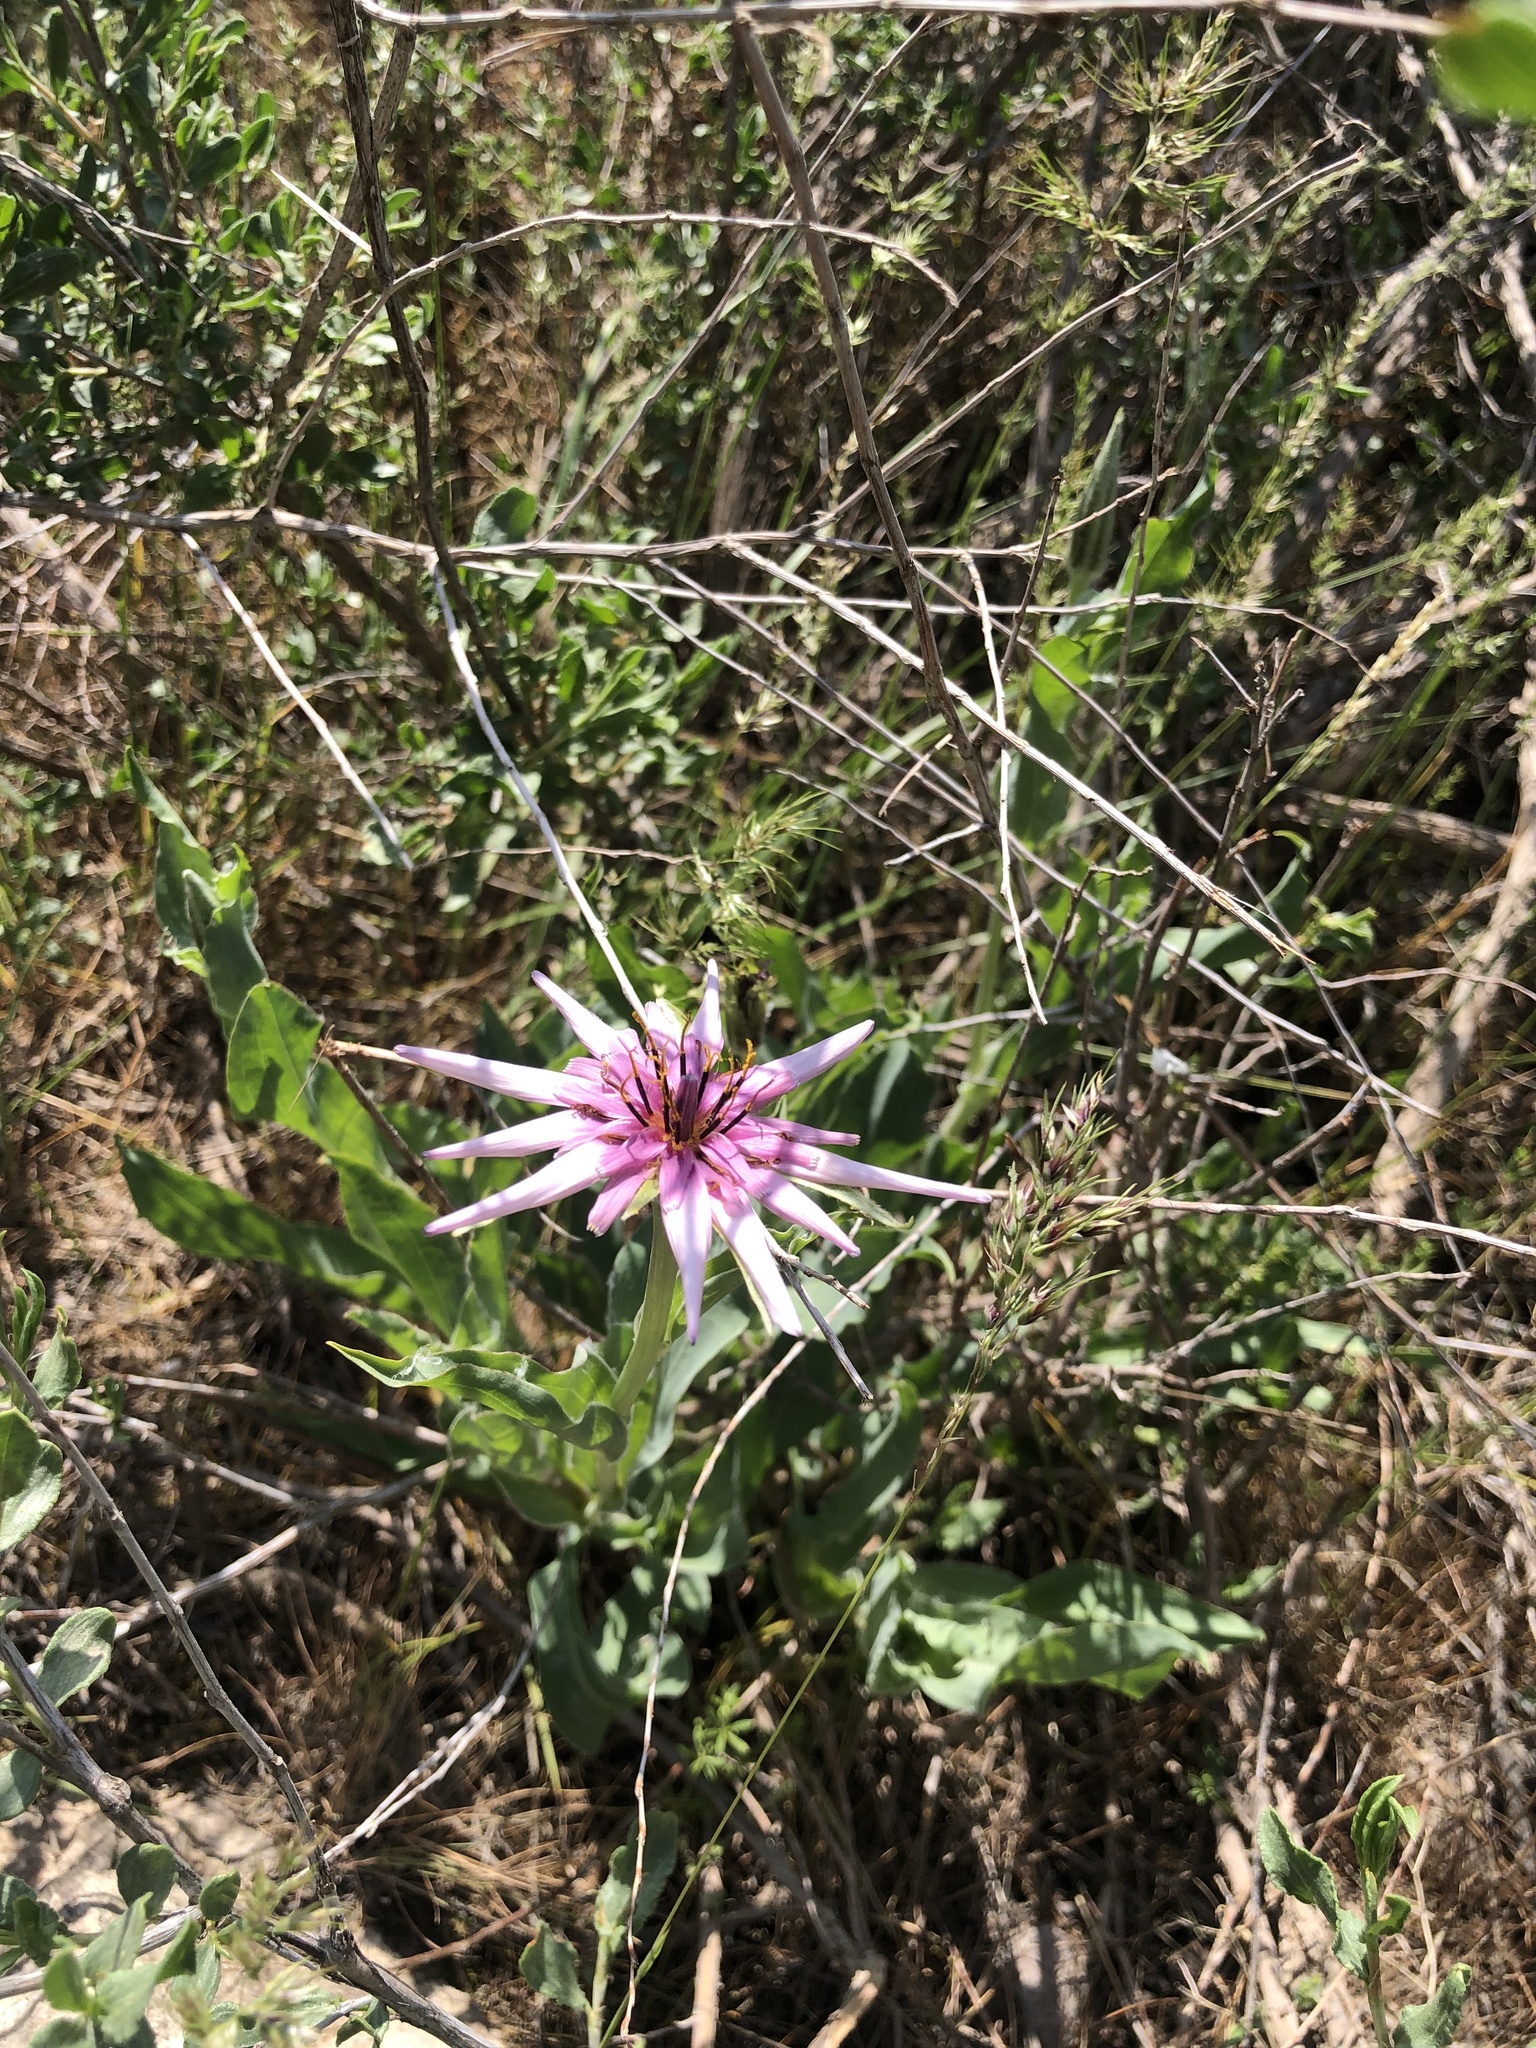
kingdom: Plantae
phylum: Tracheophyta
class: Magnoliopsida
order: Asterales
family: Asteraceae
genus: Tragopogon
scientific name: Tragopogon ruber
